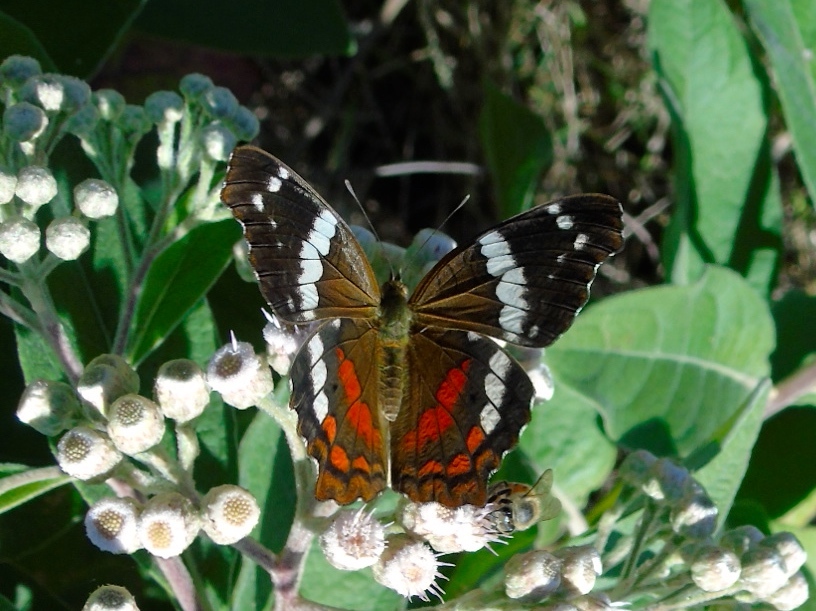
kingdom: Animalia
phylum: Arthropoda
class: Insecta
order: Lepidoptera
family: Nymphalidae
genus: Anartia
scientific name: Anartia fatima
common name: Banded peacock
